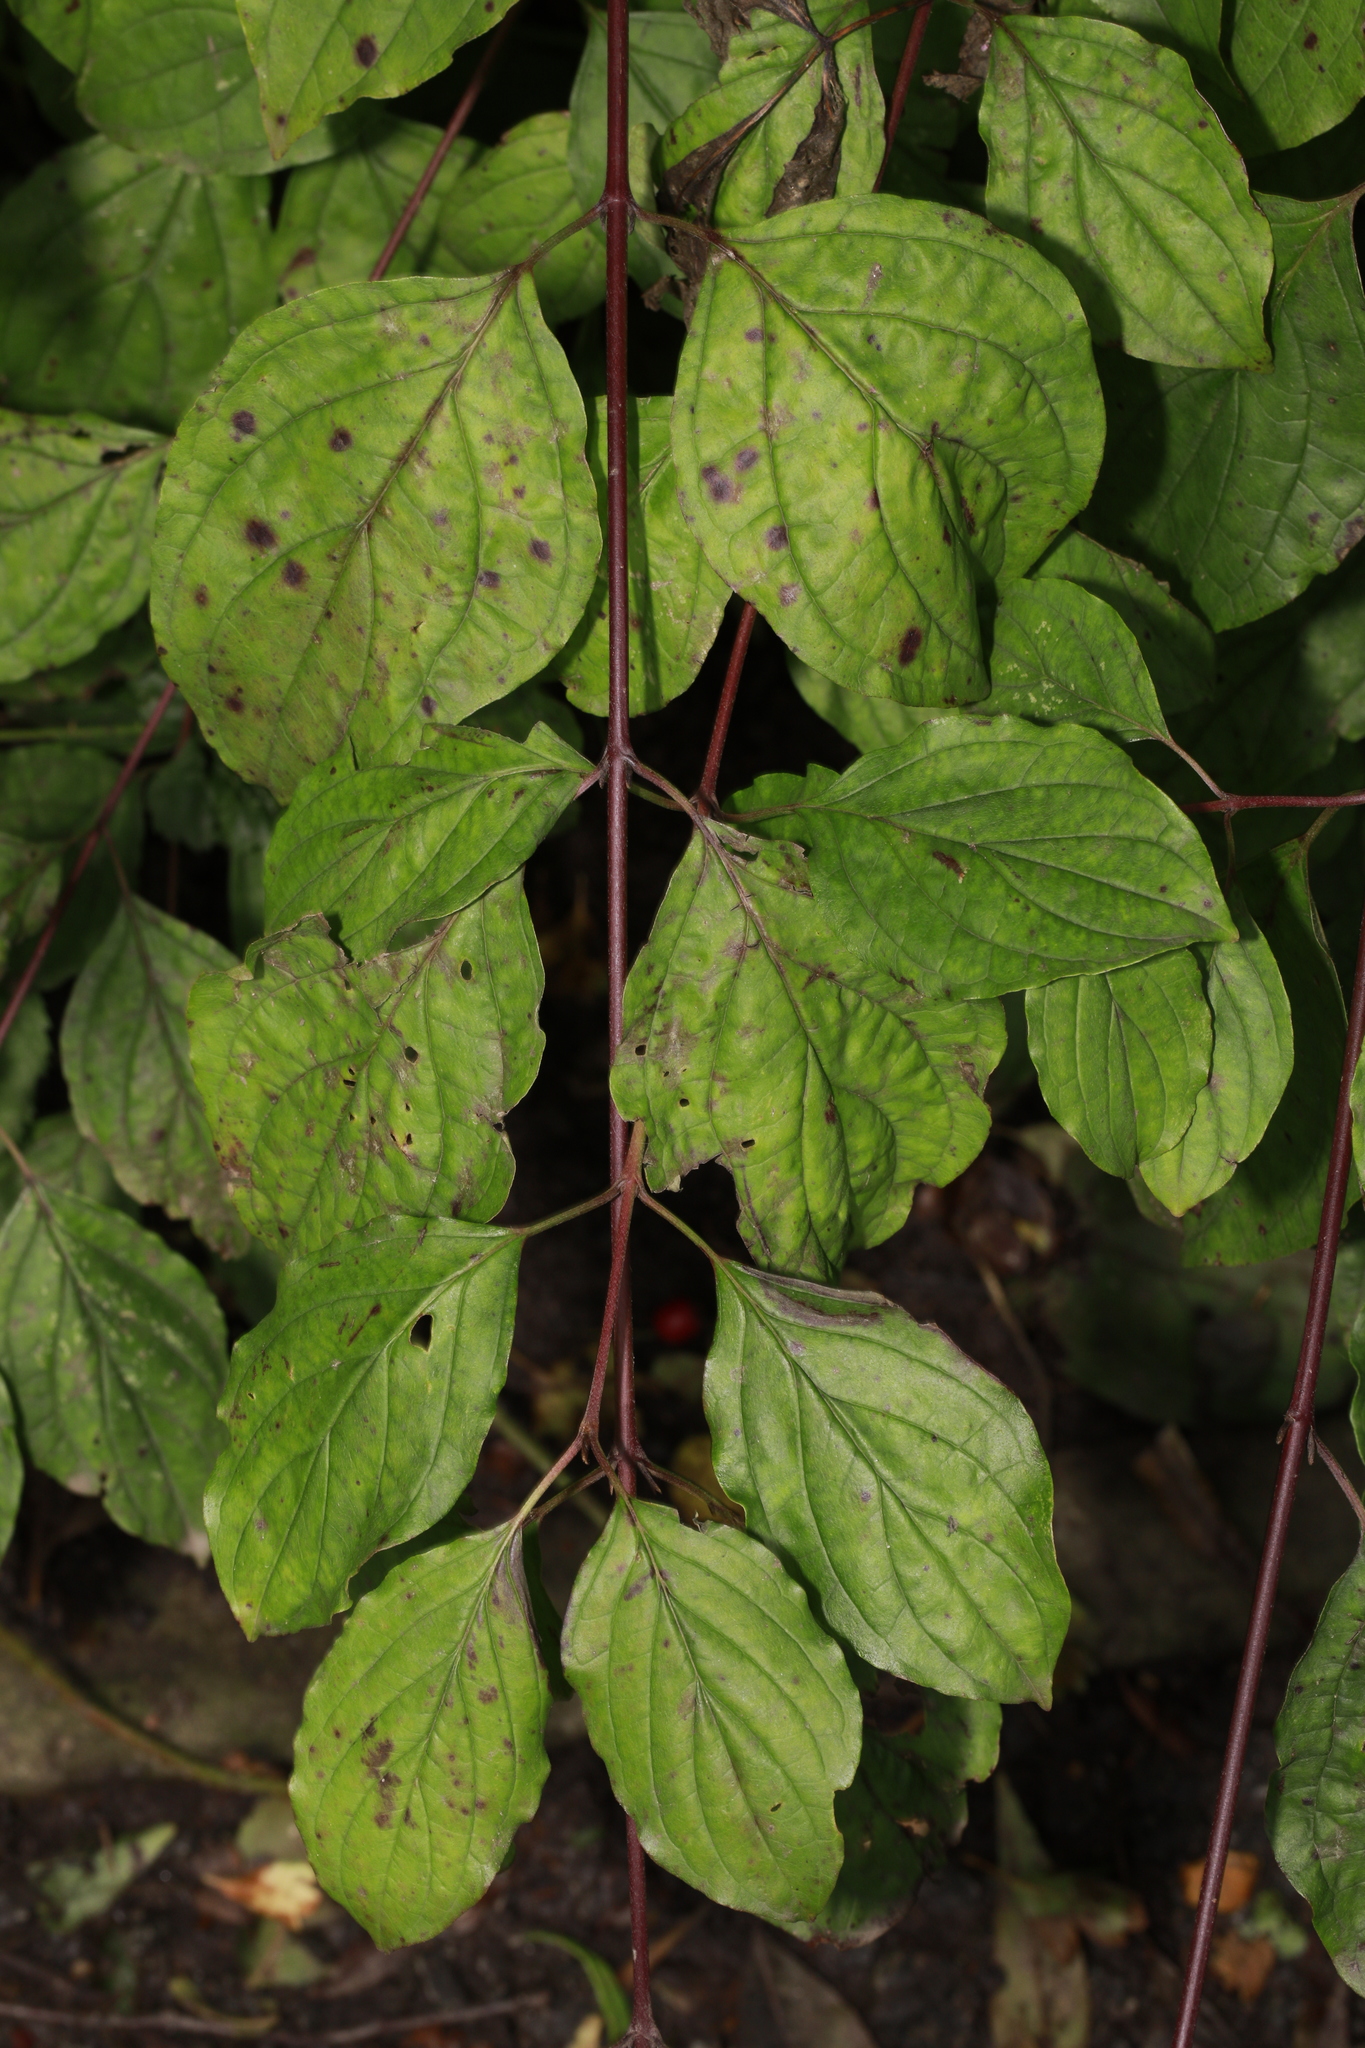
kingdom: Plantae
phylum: Tracheophyta
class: Magnoliopsida
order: Cornales
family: Cornaceae
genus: Cornus
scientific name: Cornus sanguinea
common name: Dogwood
